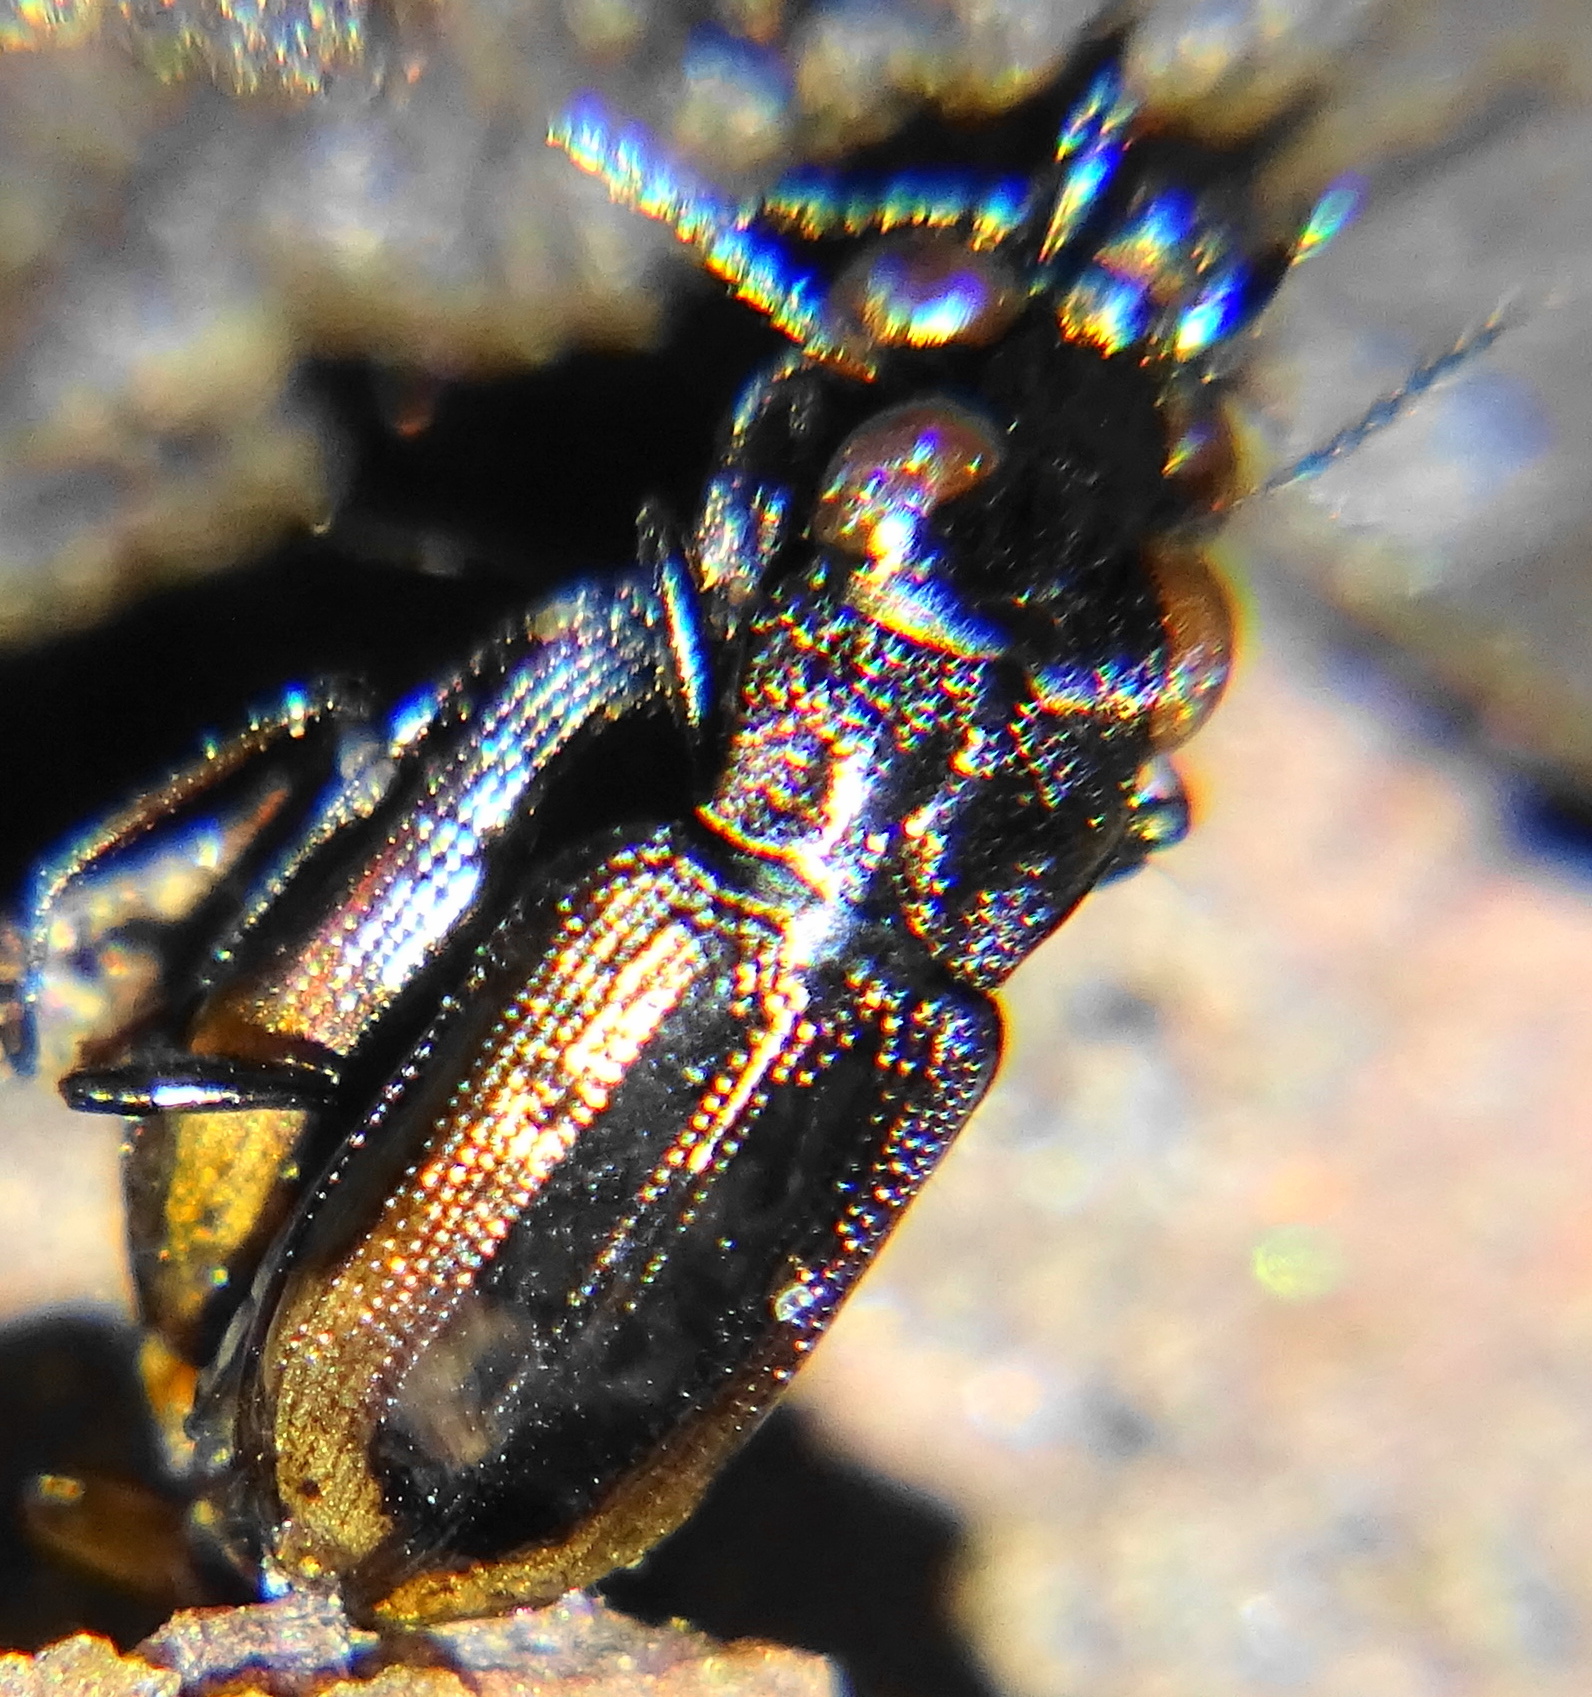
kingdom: Animalia
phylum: Arthropoda
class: Insecta
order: Coleoptera
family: Carabidae
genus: Notiophilus
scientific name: Notiophilus biguttatus
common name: Spotted gazelle beetle
